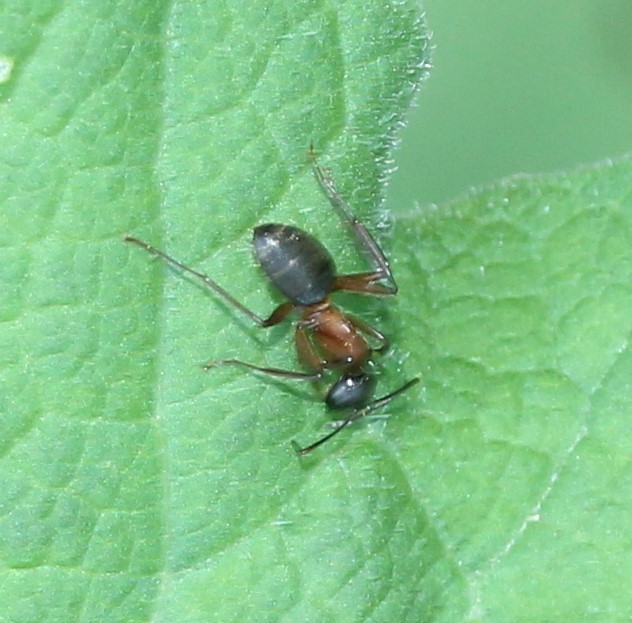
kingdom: Animalia
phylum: Arthropoda
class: Insecta
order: Hymenoptera
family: Formicidae
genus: Camponotus
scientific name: Camponotus chromaiodes
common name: Red carpenter ant
